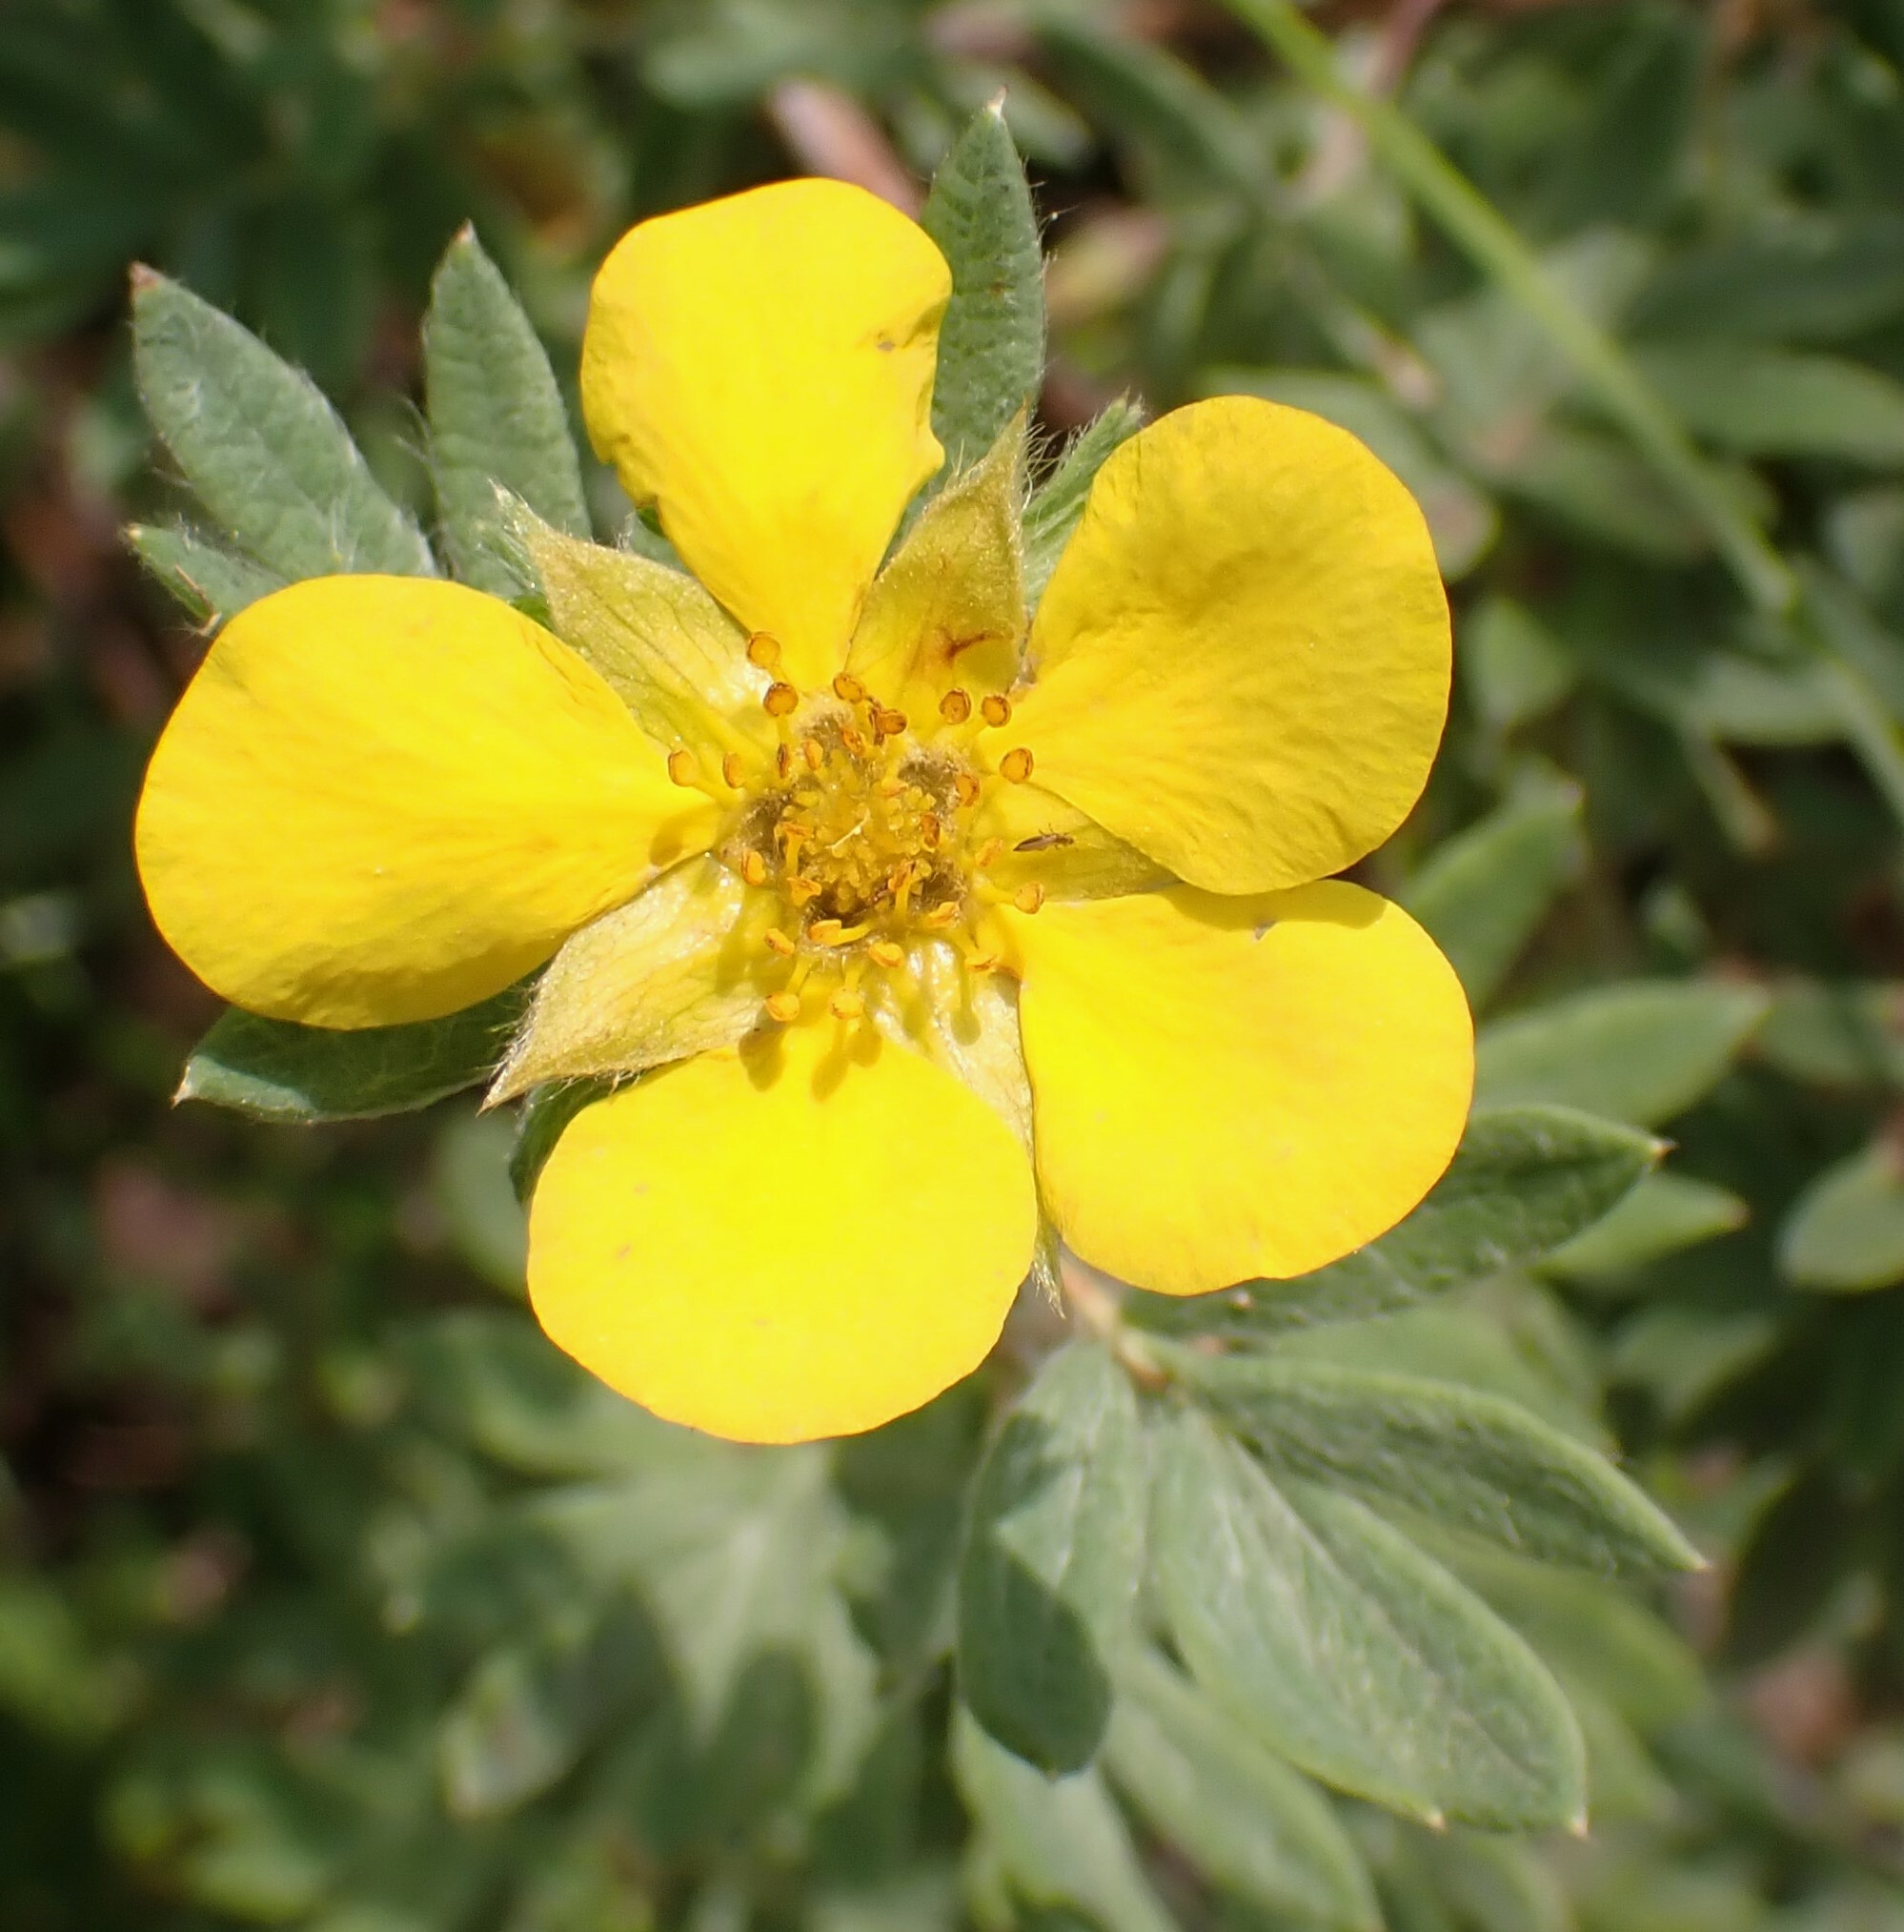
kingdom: Plantae
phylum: Tracheophyta
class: Magnoliopsida
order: Rosales
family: Rosaceae
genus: Dasiphora
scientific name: Dasiphora fruticosa
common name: Shrubby cinquefoil
